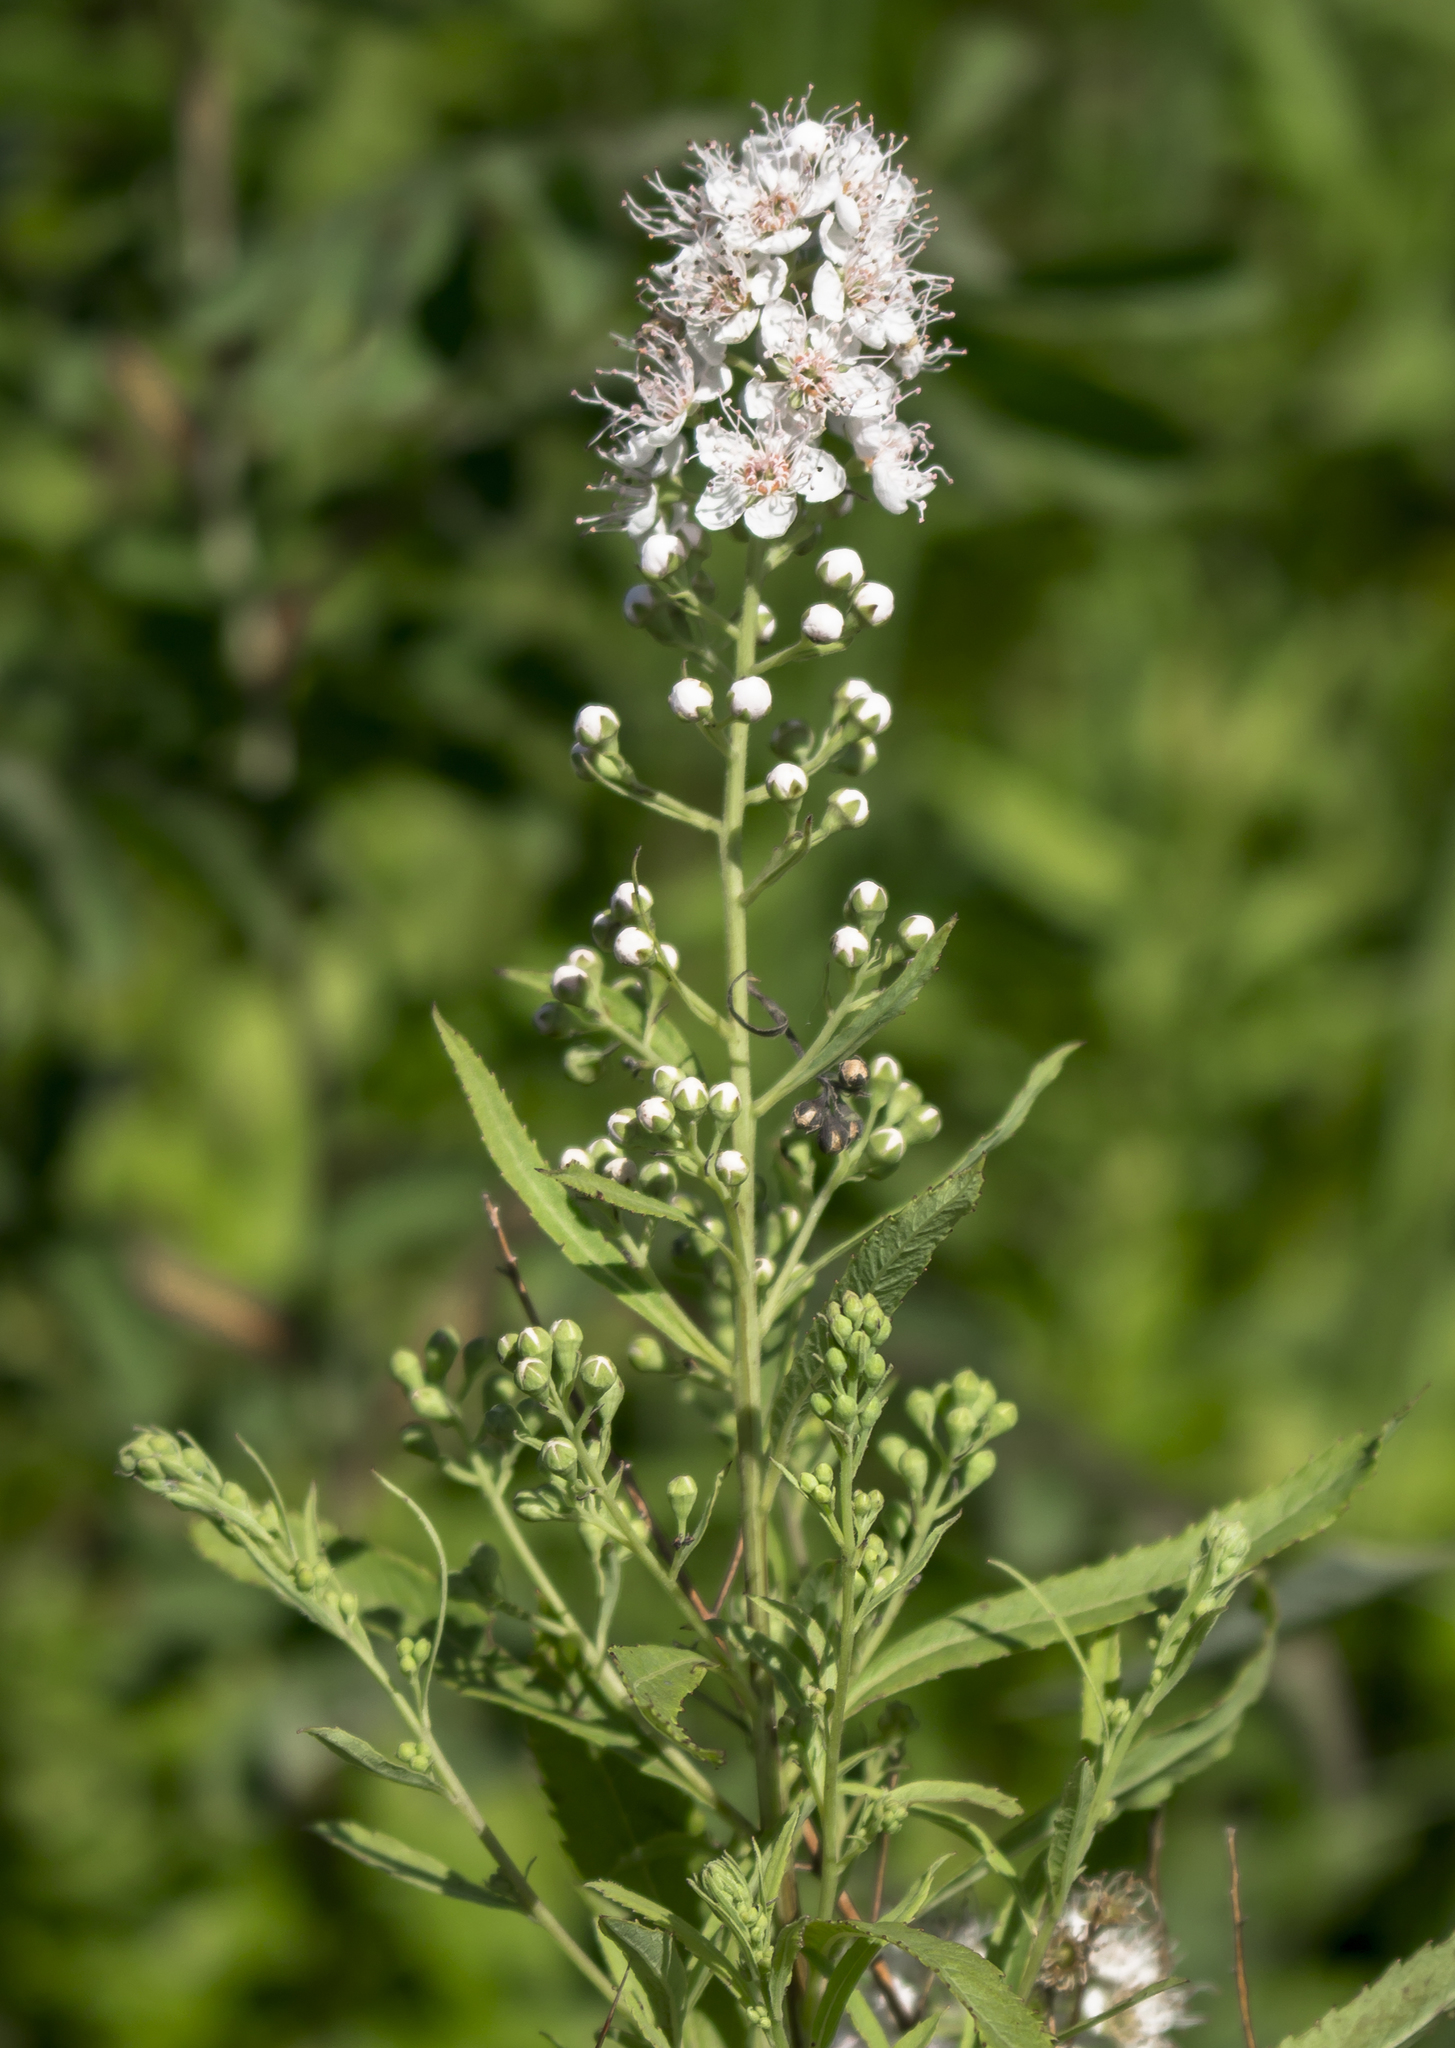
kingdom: Plantae
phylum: Tracheophyta
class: Magnoliopsida
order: Rosales
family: Rosaceae
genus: Spiraea
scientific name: Spiraea alba
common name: Pale bridewort
